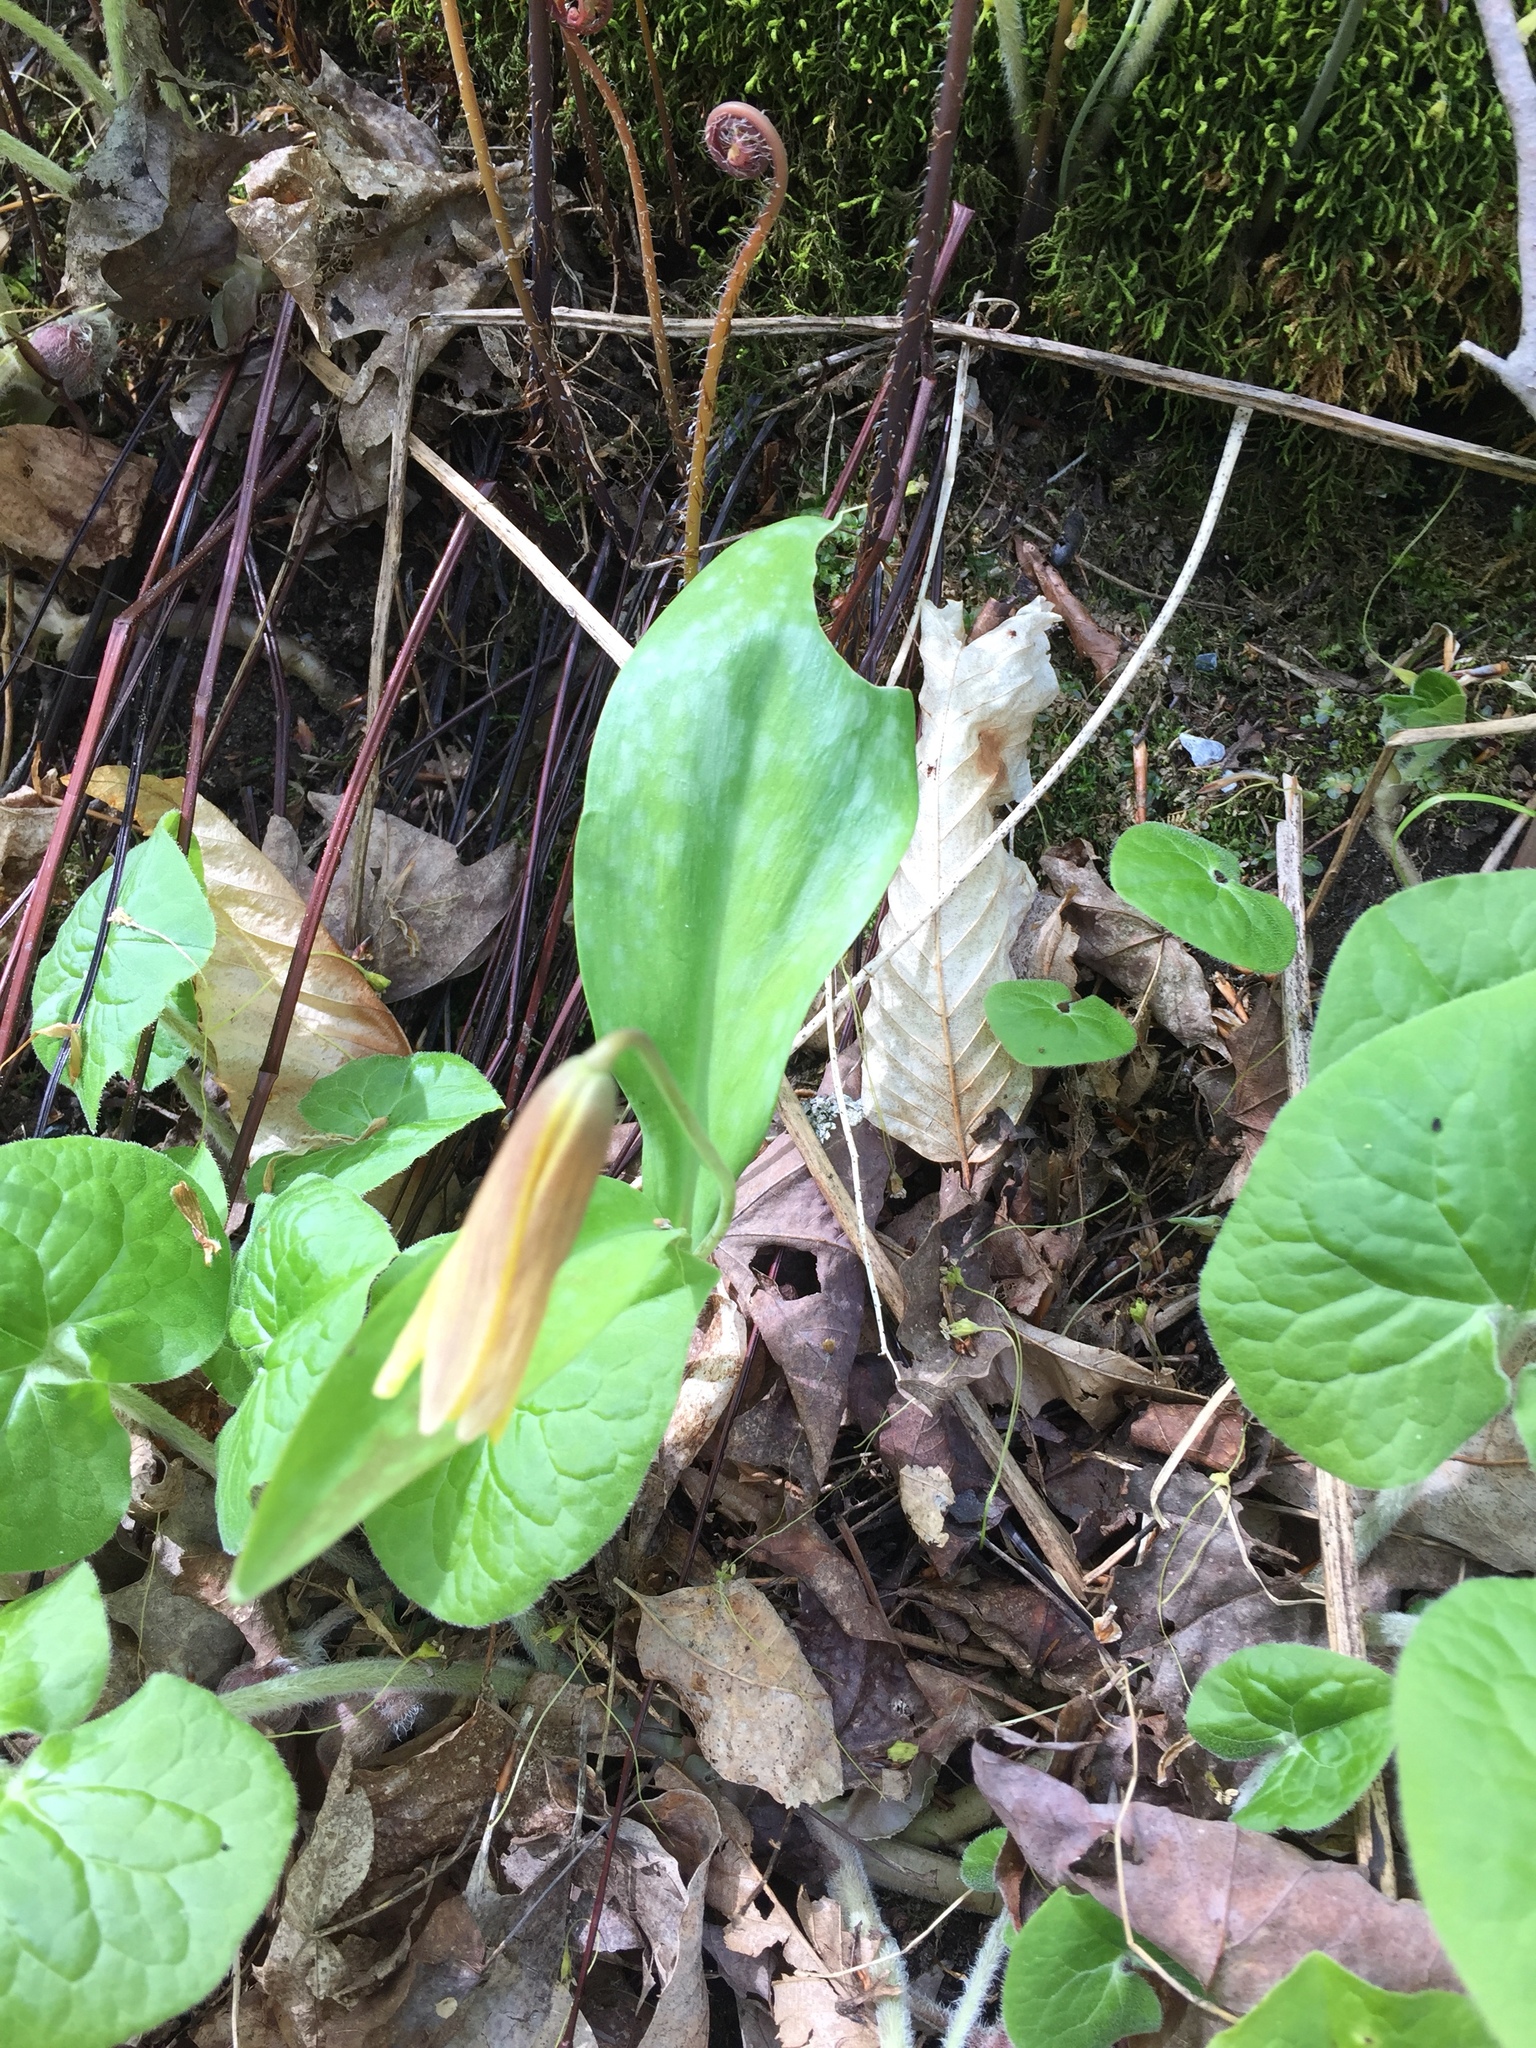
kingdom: Plantae
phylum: Tracheophyta
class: Liliopsida
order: Liliales
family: Liliaceae
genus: Erythronium
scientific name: Erythronium americanum
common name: Yellow adder's-tongue
